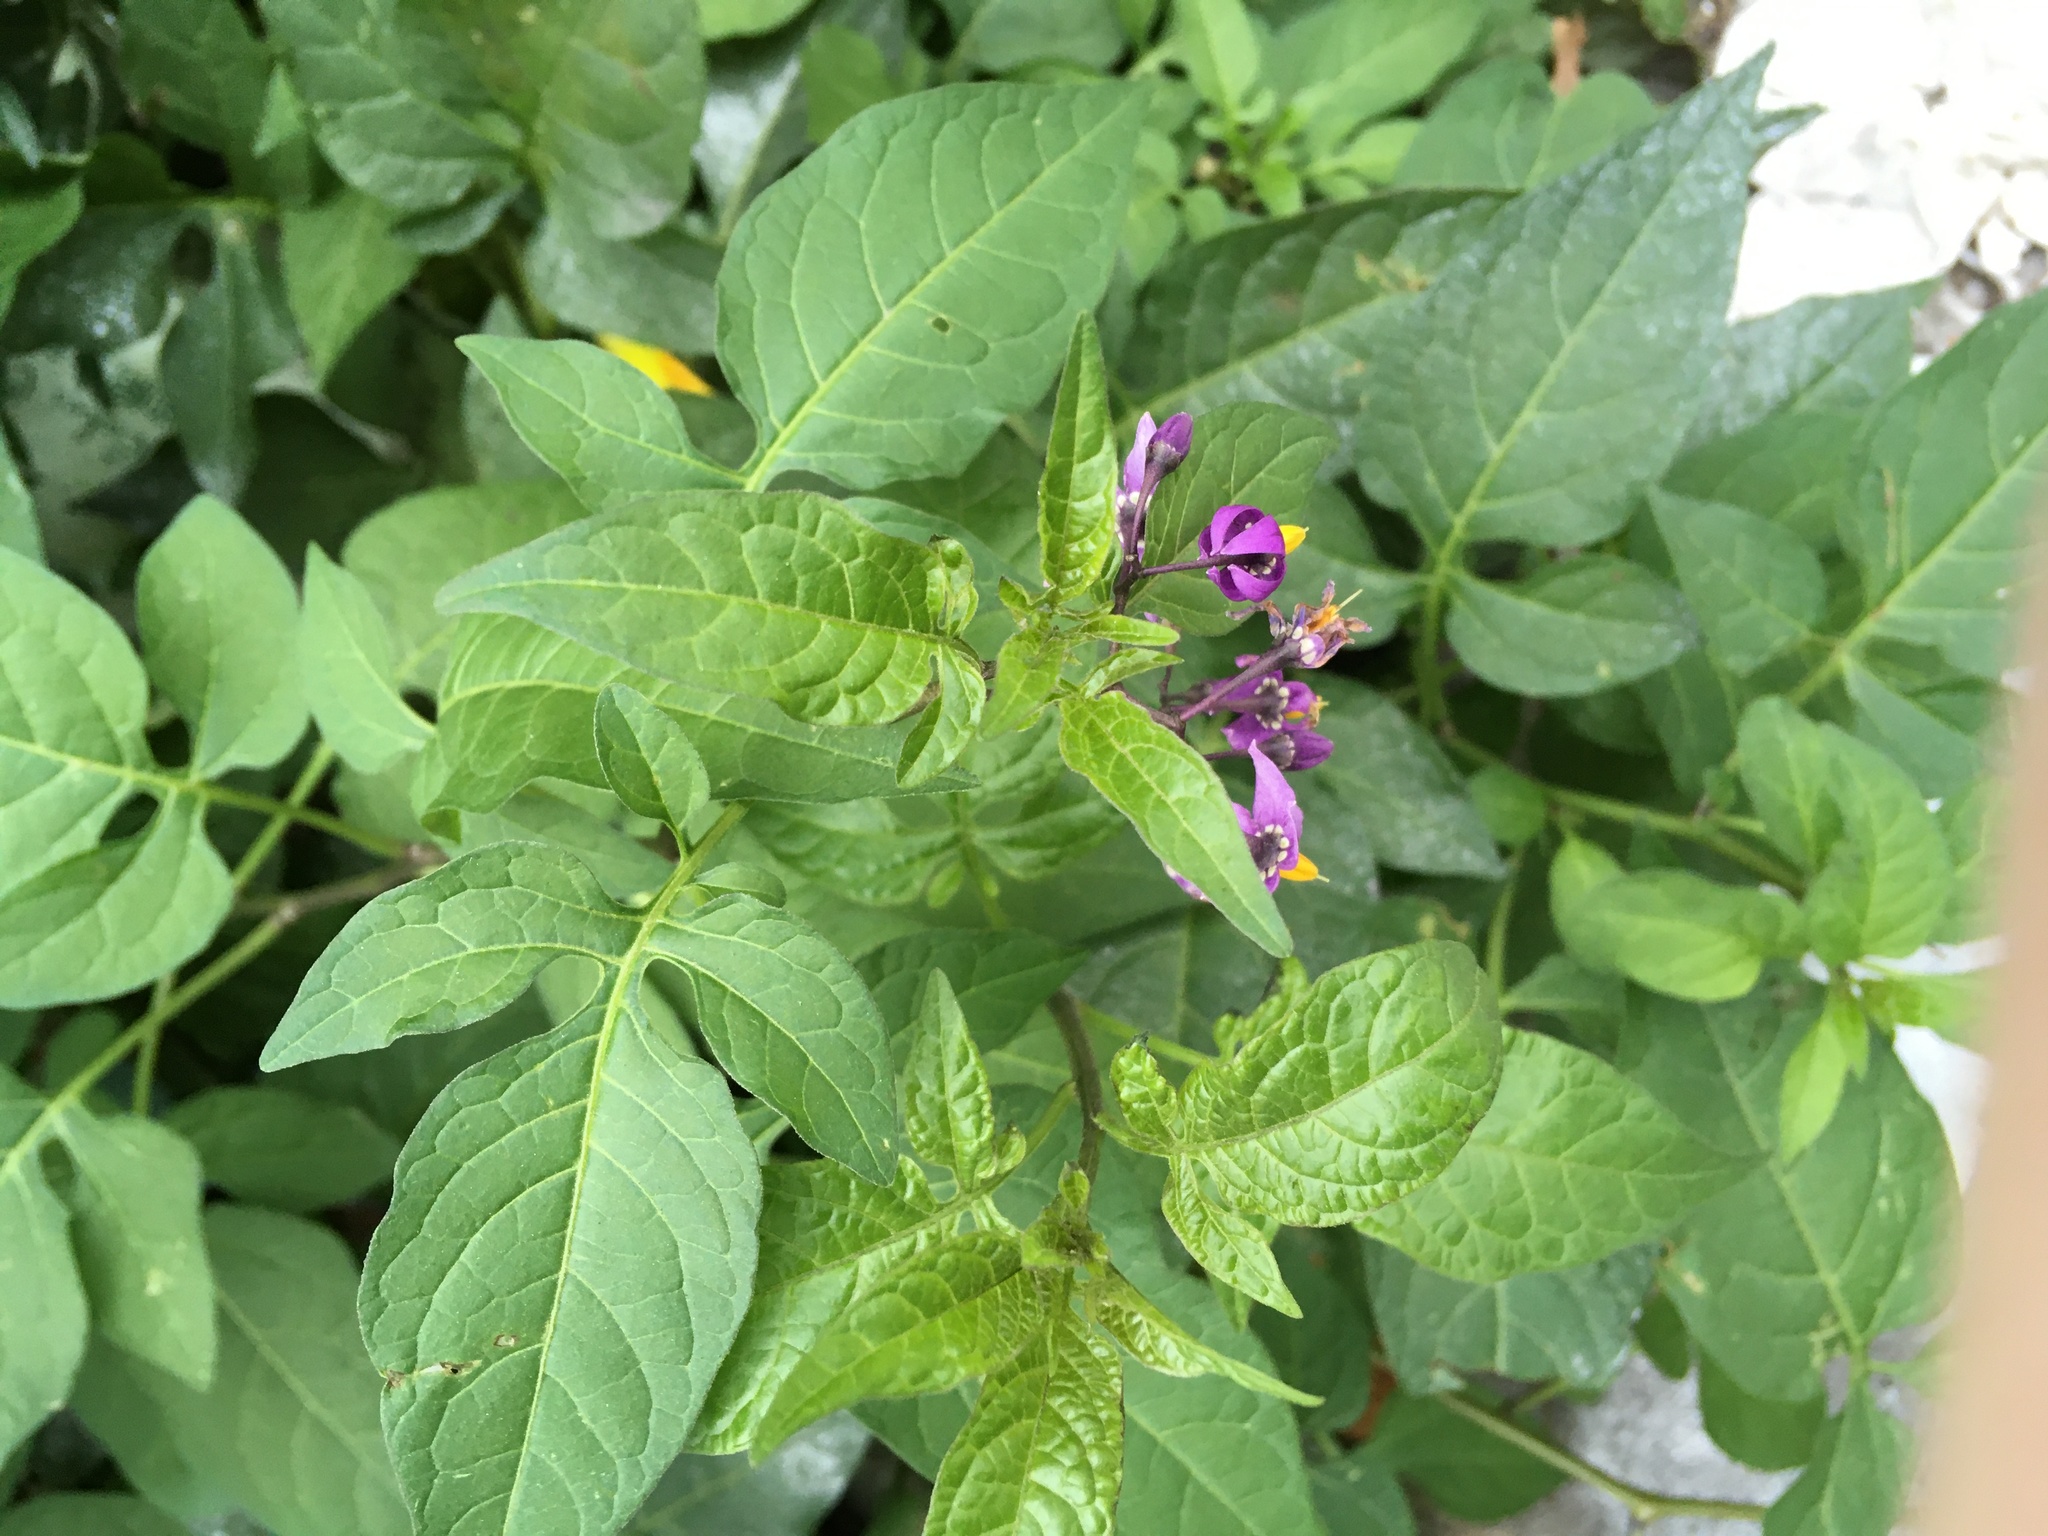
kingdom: Plantae
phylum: Tracheophyta
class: Magnoliopsida
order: Solanales
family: Solanaceae
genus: Solanum
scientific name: Solanum dulcamara
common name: Climbing nightshade
